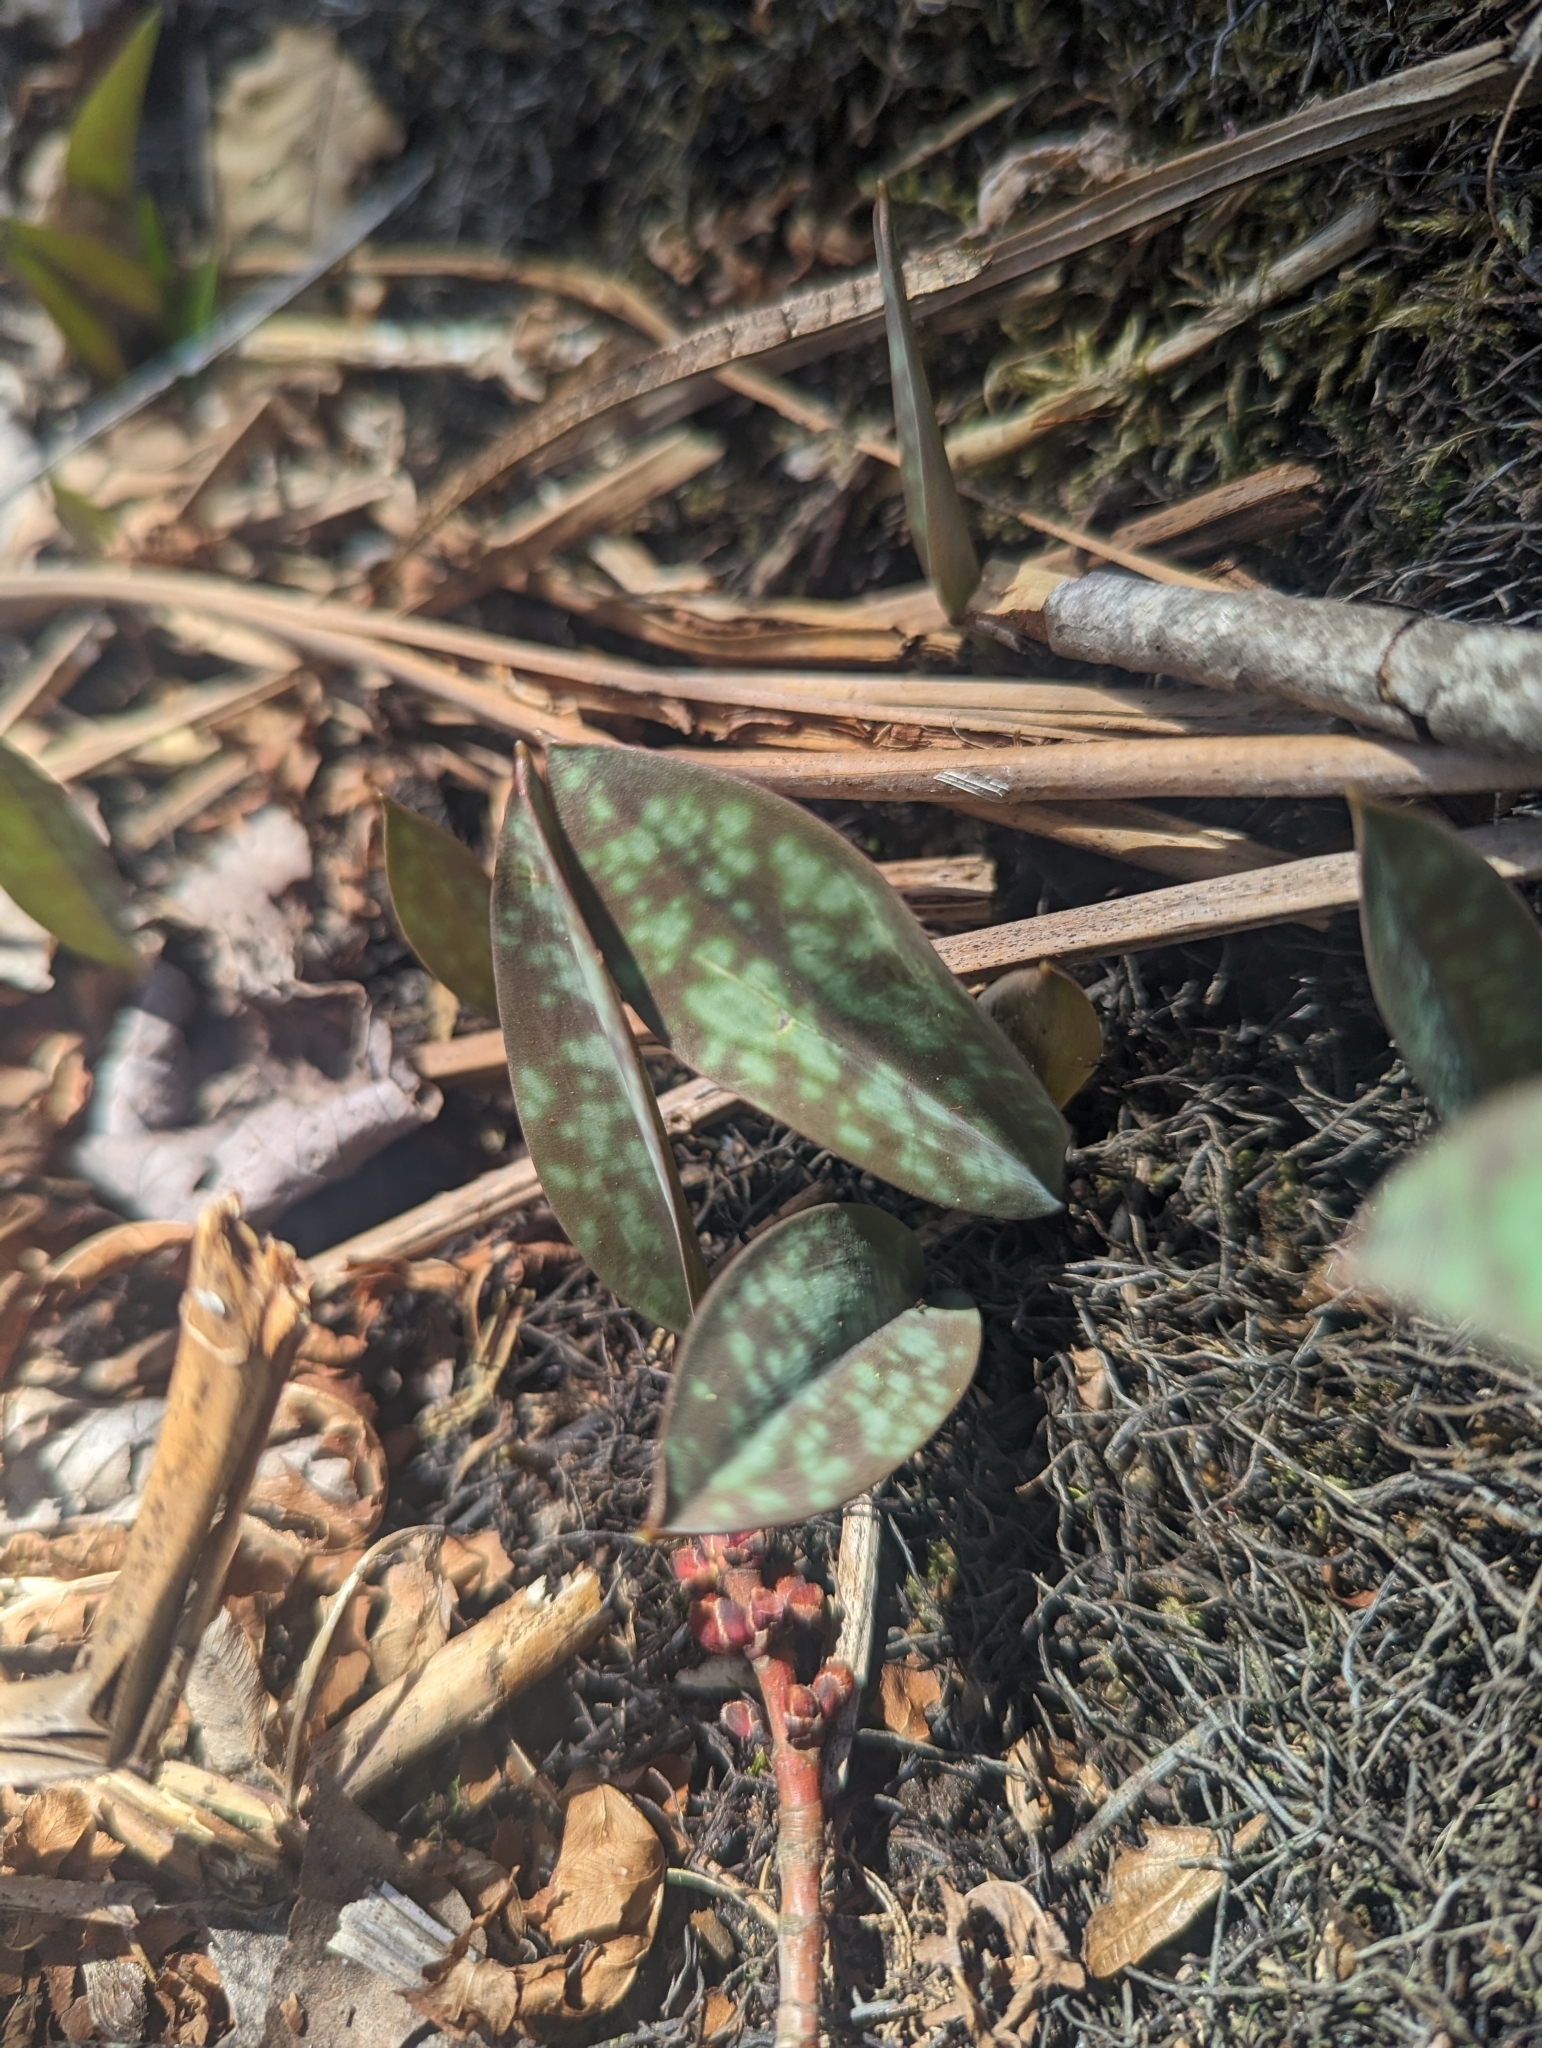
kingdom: Plantae
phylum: Tracheophyta
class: Liliopsida
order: Liliales
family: Liliaceae
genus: Erythronium
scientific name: Erythronium americanum
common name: Yellow adder's-tongue
